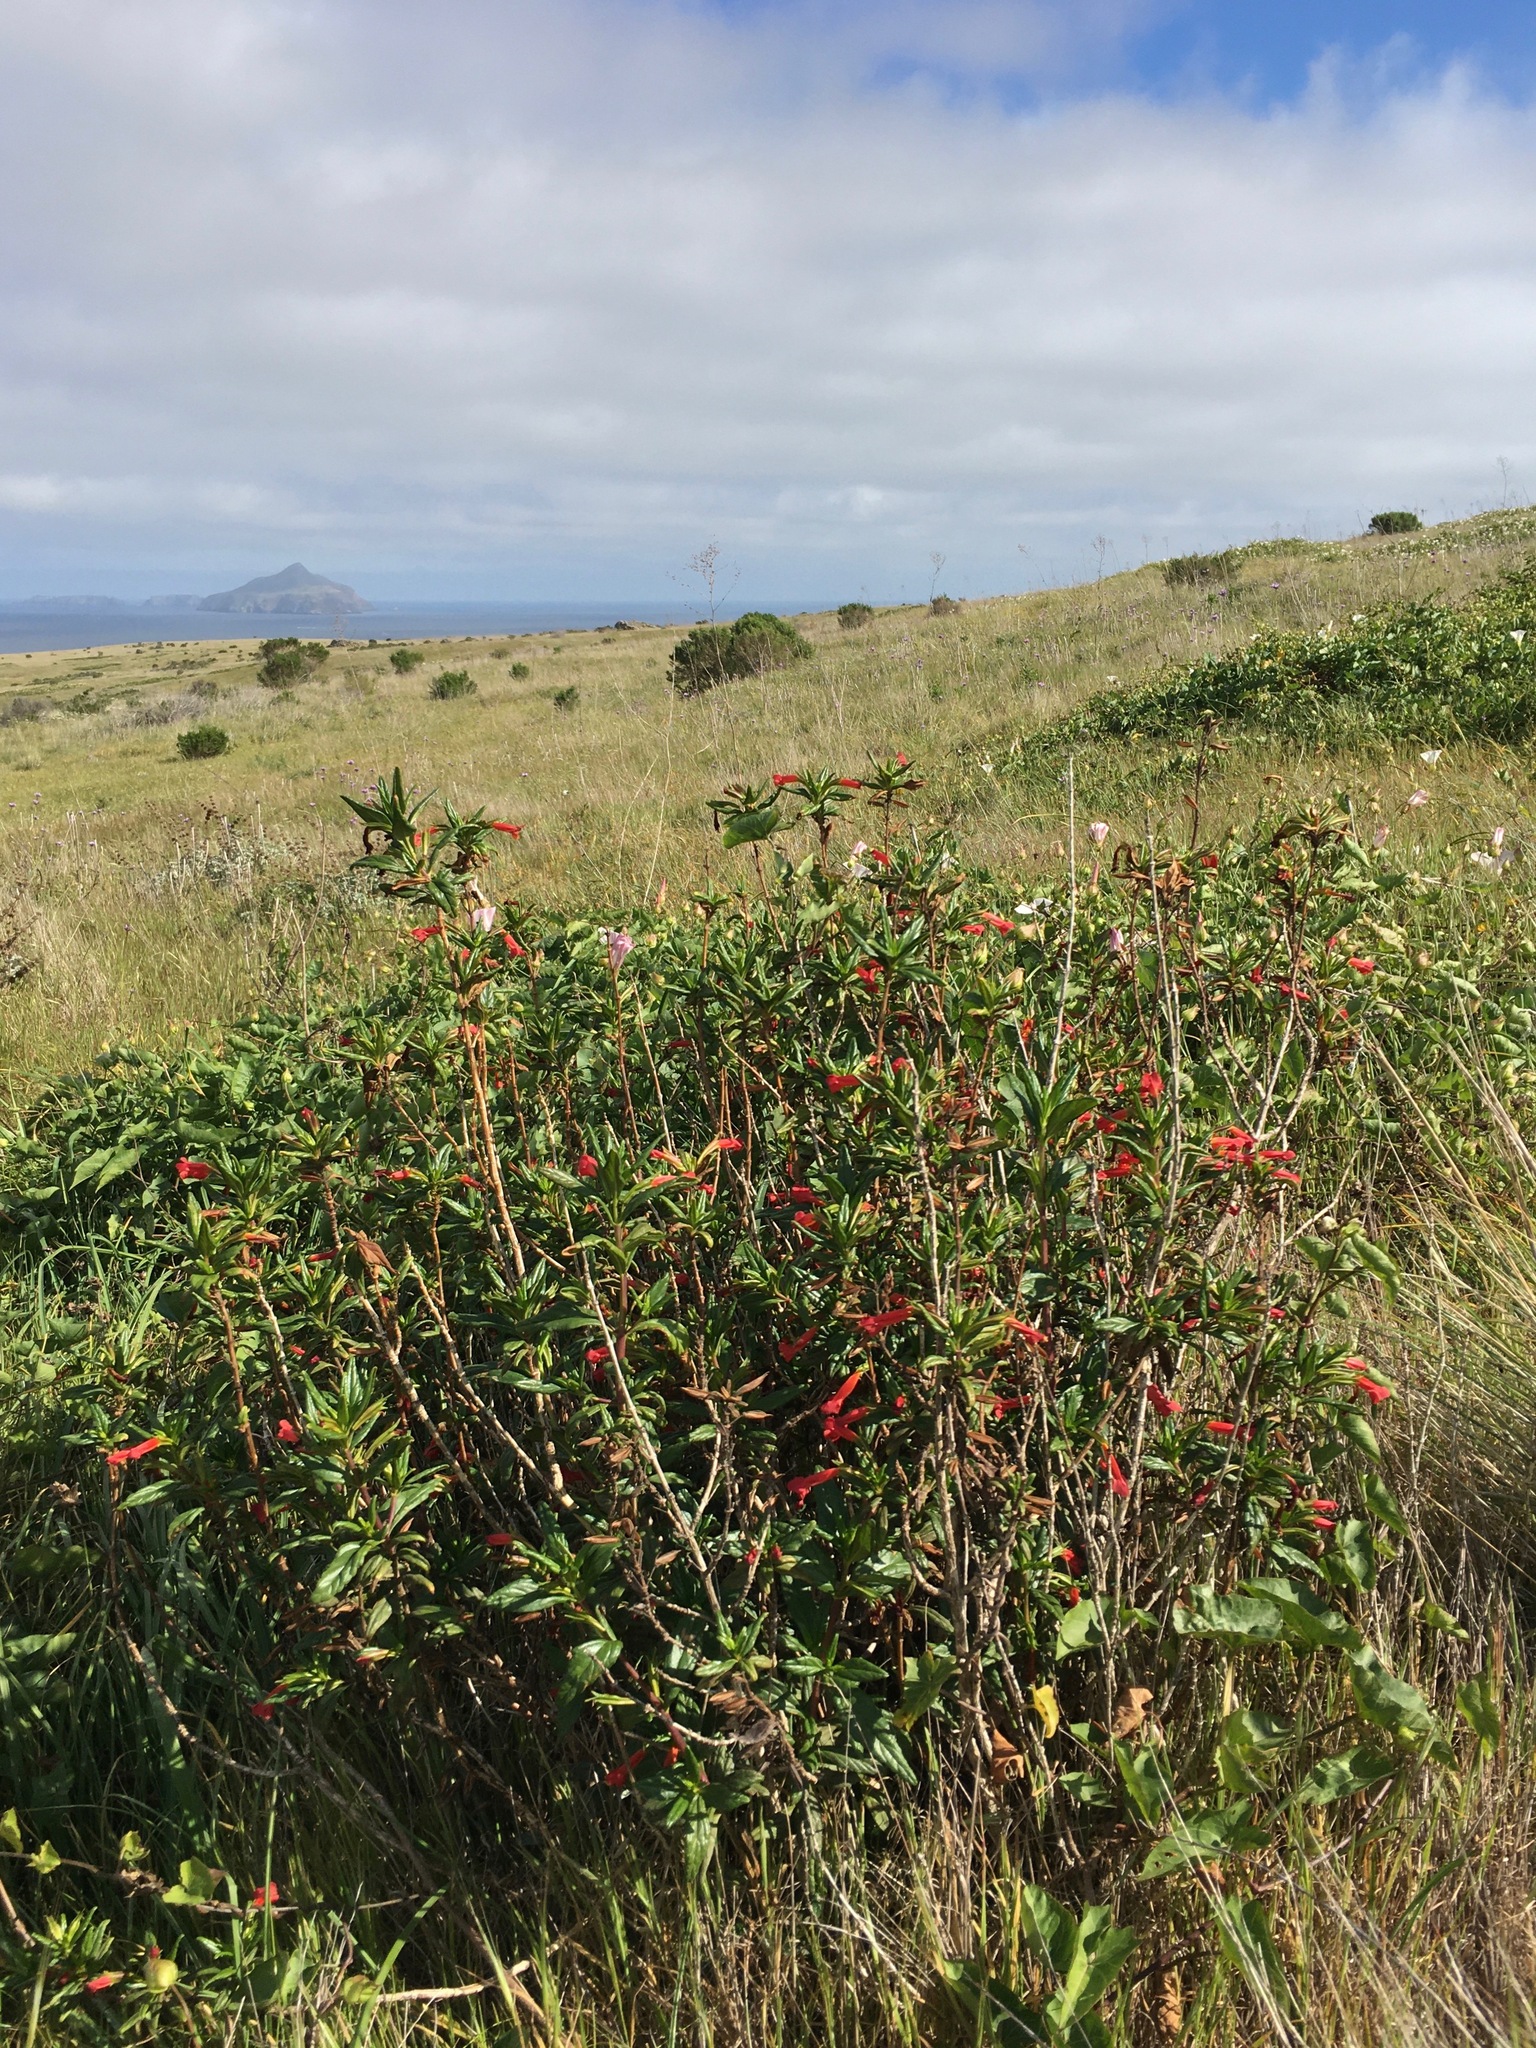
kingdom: Plantae
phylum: Tracheophyta
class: Magnoliopsida
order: Lamiales
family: Phrymaceae
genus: Diplacus
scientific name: Diplacus parviflorus
